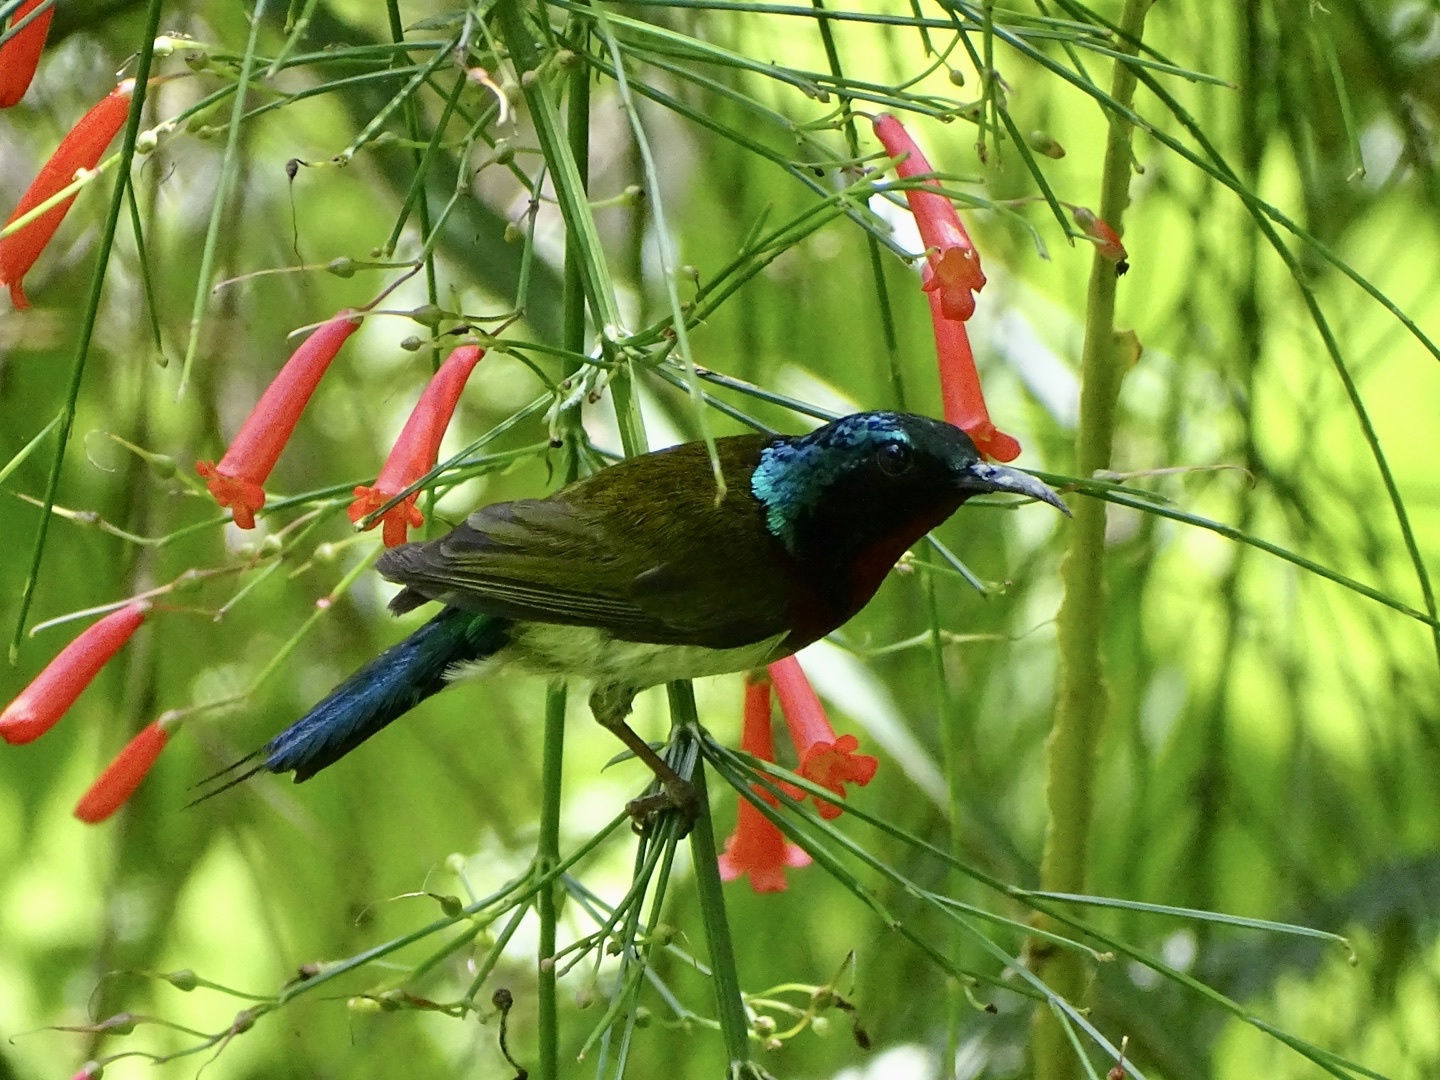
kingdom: Animalia
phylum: Chordata
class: Aves
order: Passeriformes
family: Nectariniidae
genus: Aethopyga
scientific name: Aethopyga christinae
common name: Fork-tailed sunbird
